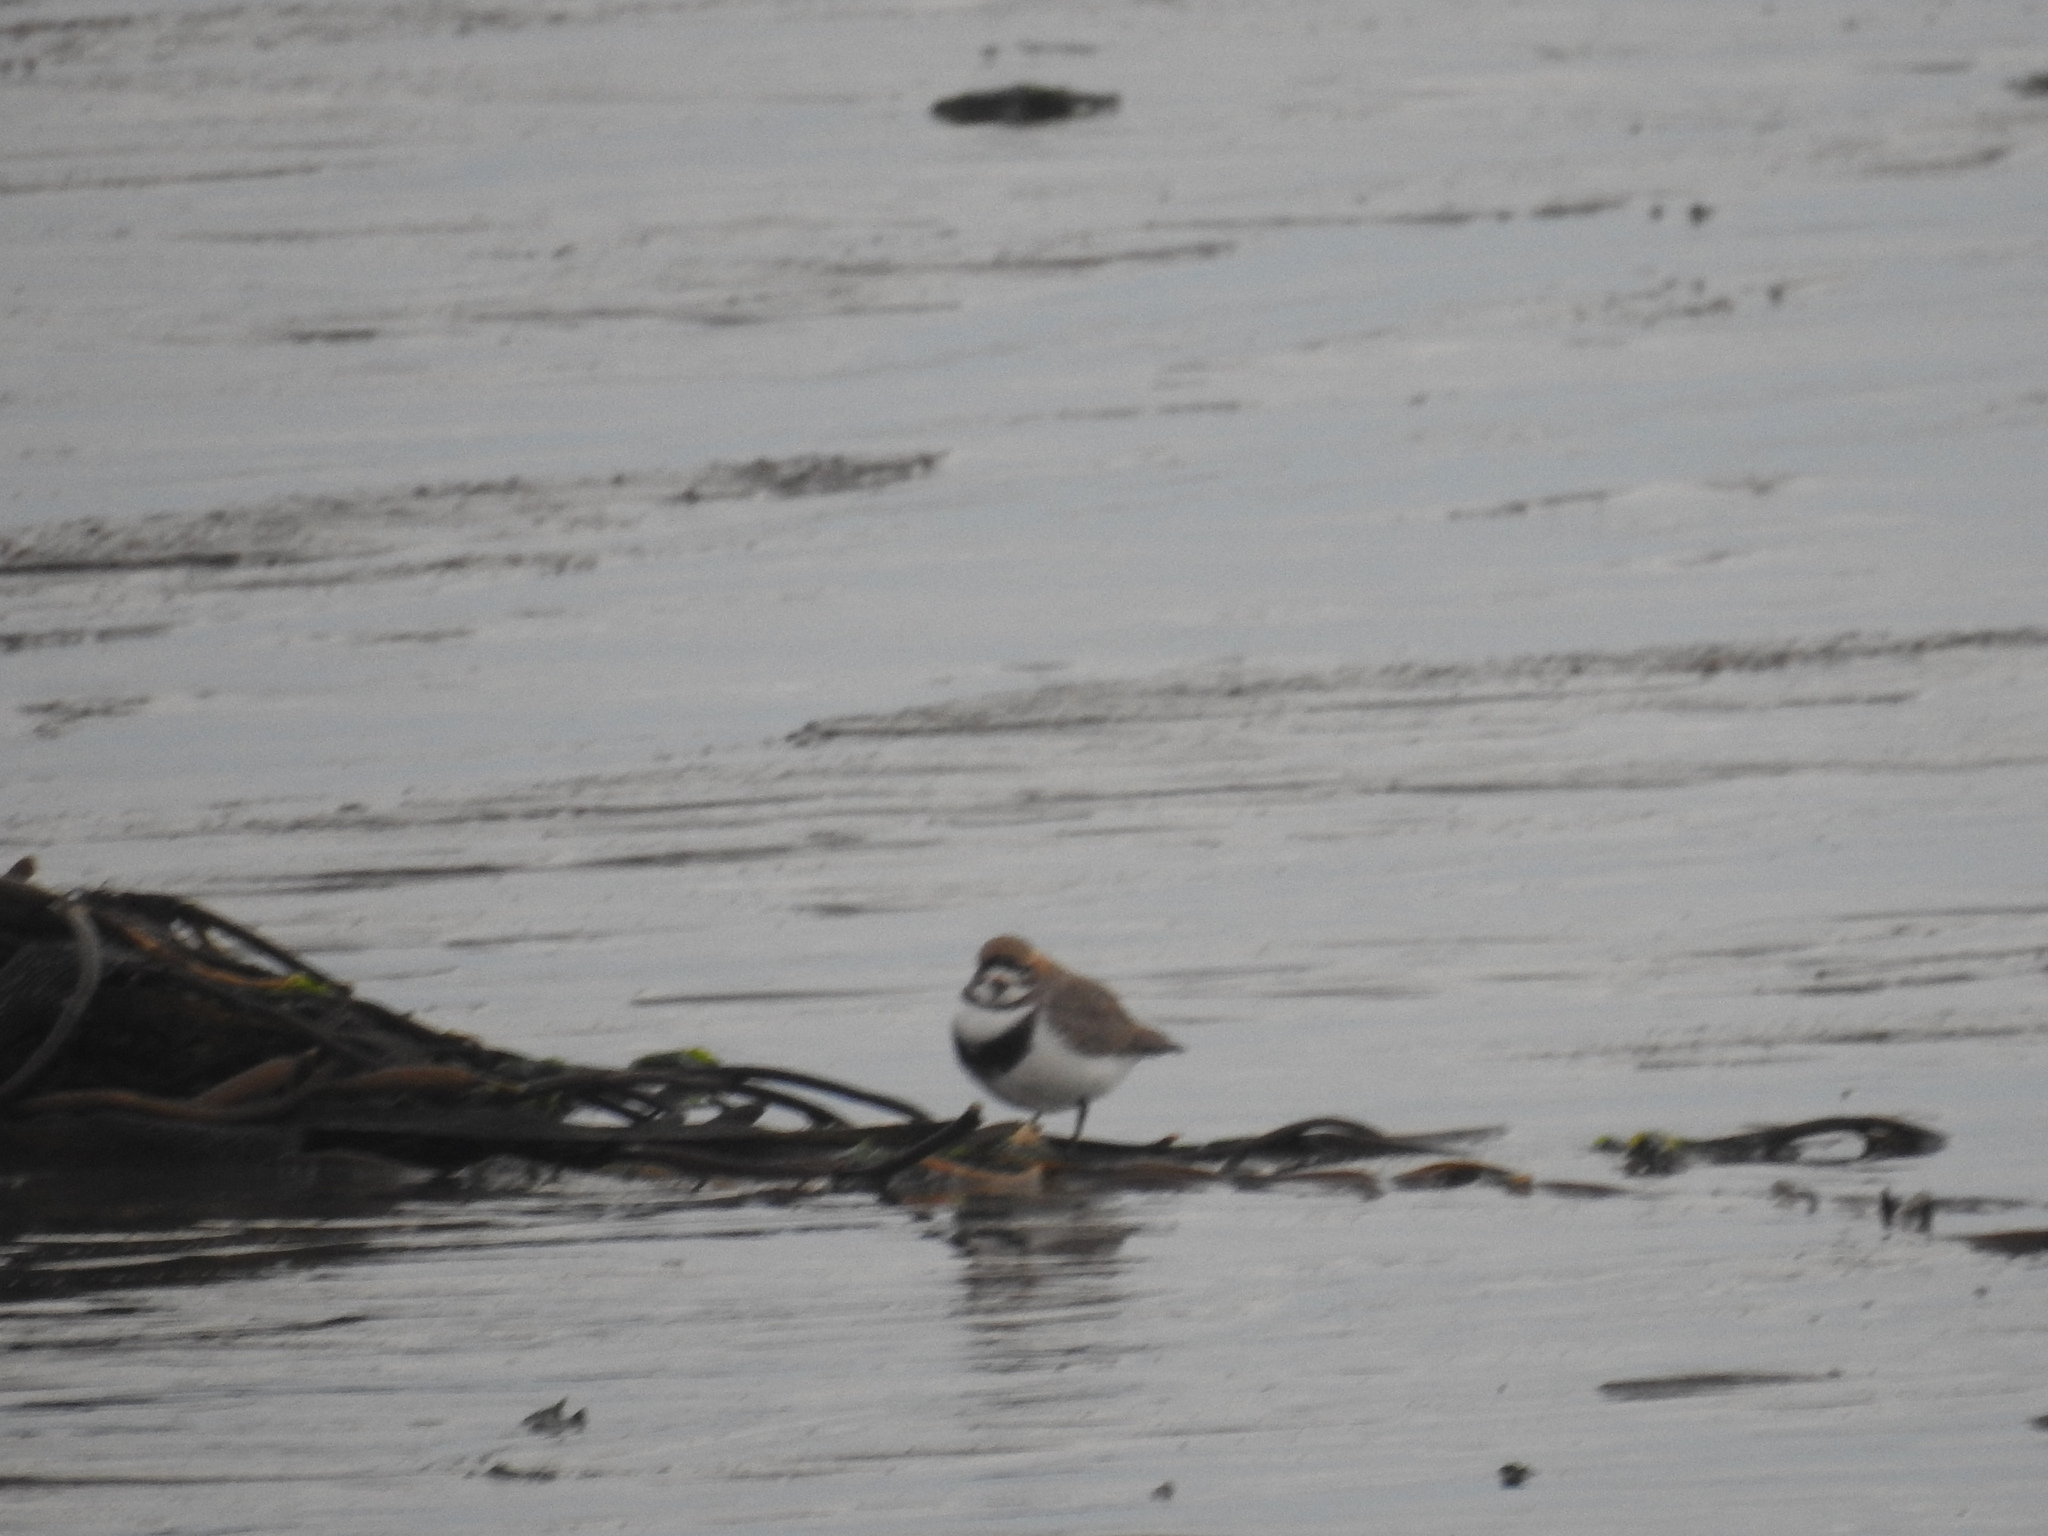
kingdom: Animalia
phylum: Chordata
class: Aves
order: Charadriiformes
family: Charadriidae
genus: Anarhynchus
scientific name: Anarhynchus
